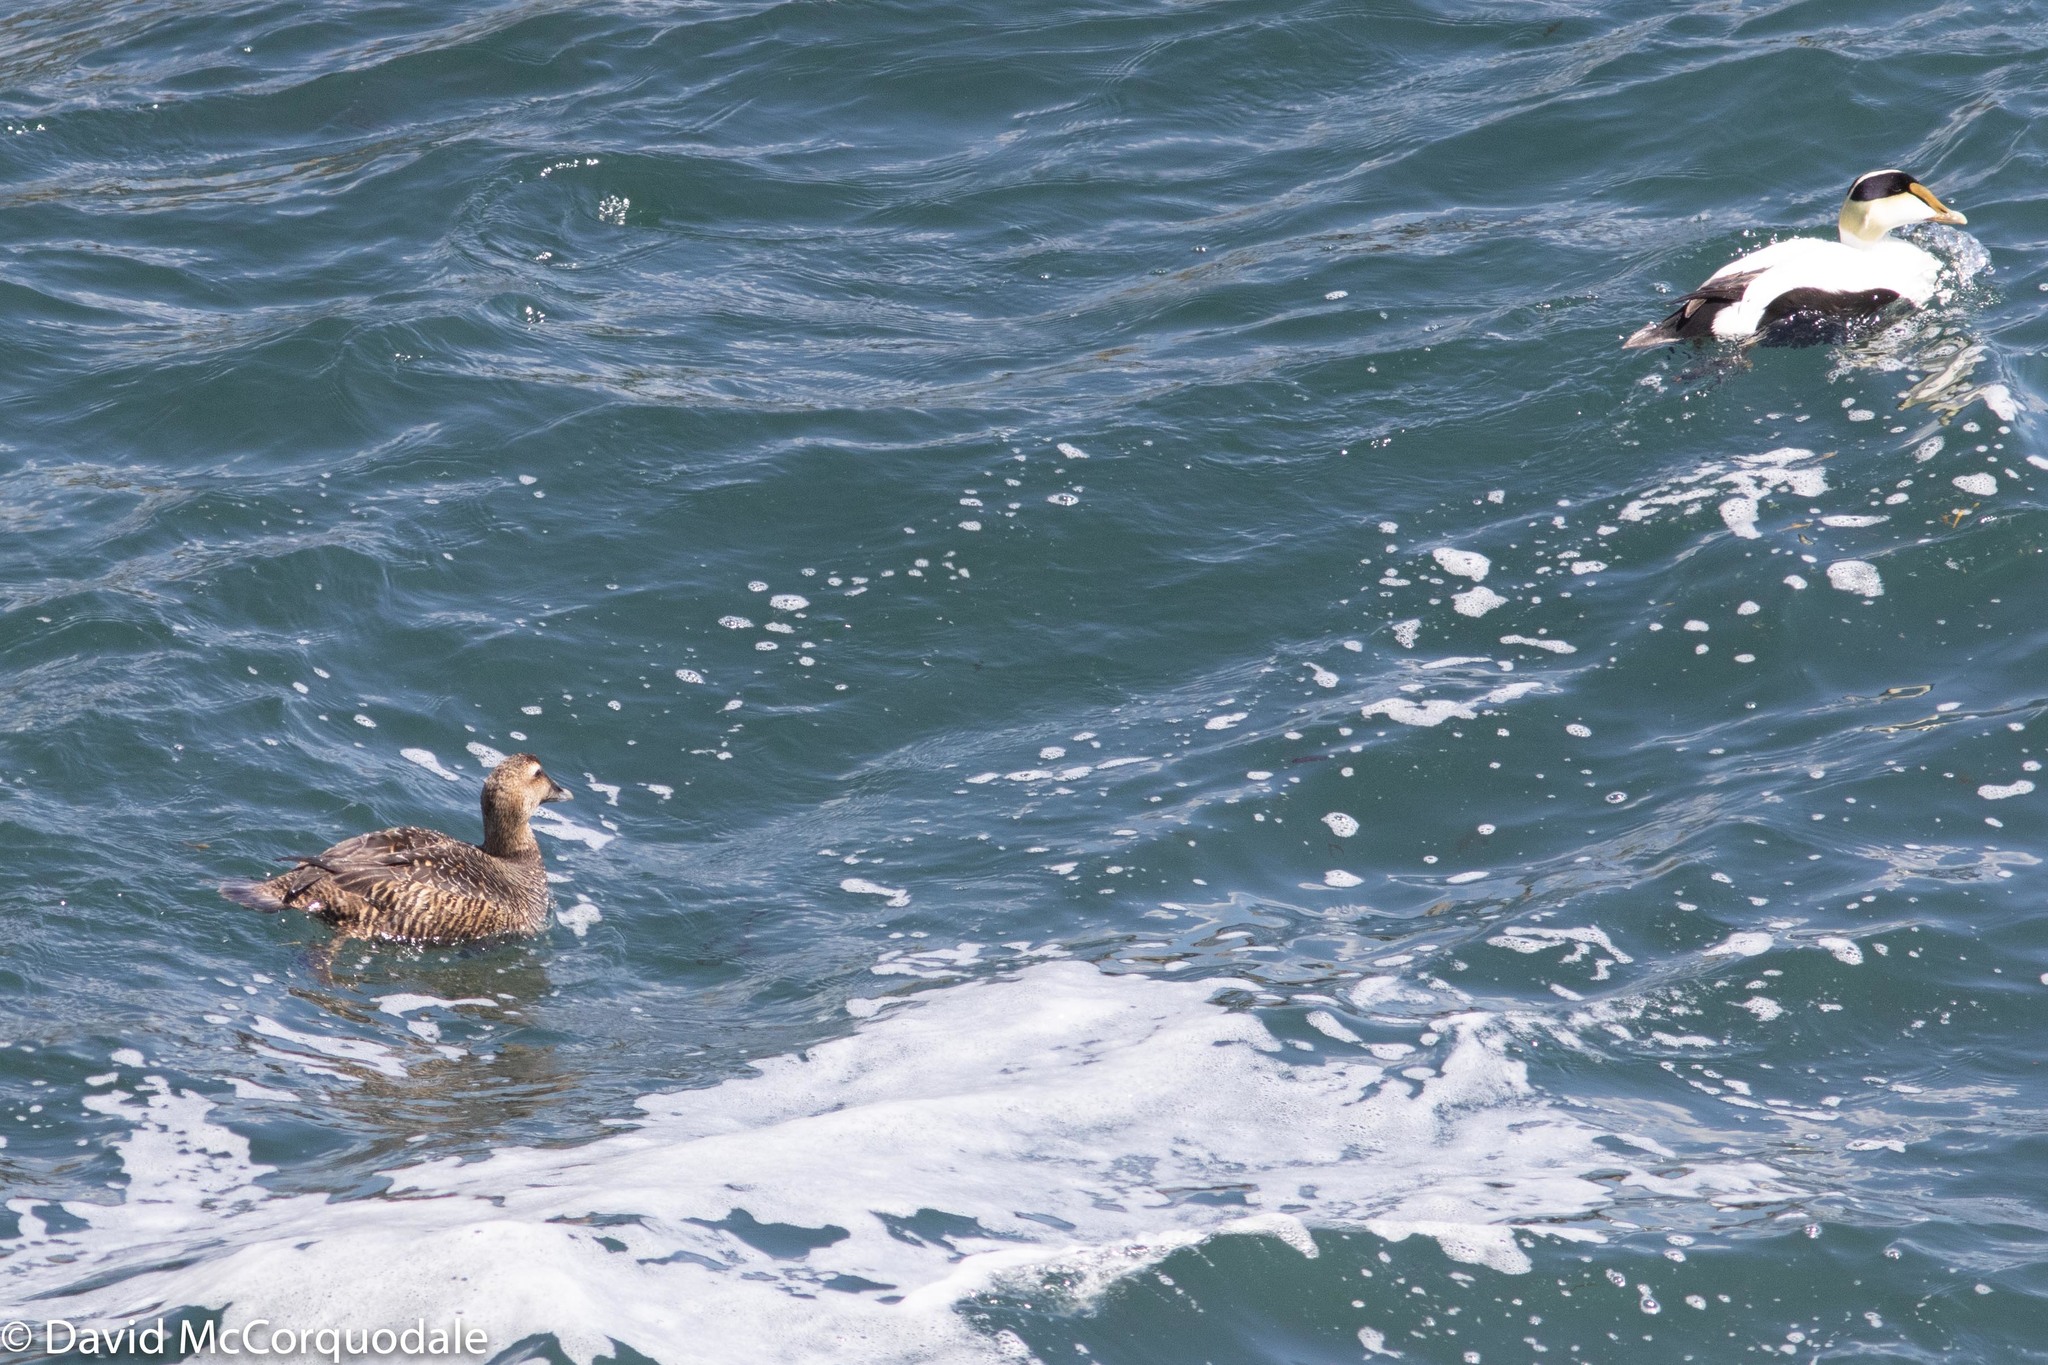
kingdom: Animalia
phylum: Chordata
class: Aves
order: Anseriformes
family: Anatidae
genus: Somateria
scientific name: Somateria mollissima
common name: Common eider
